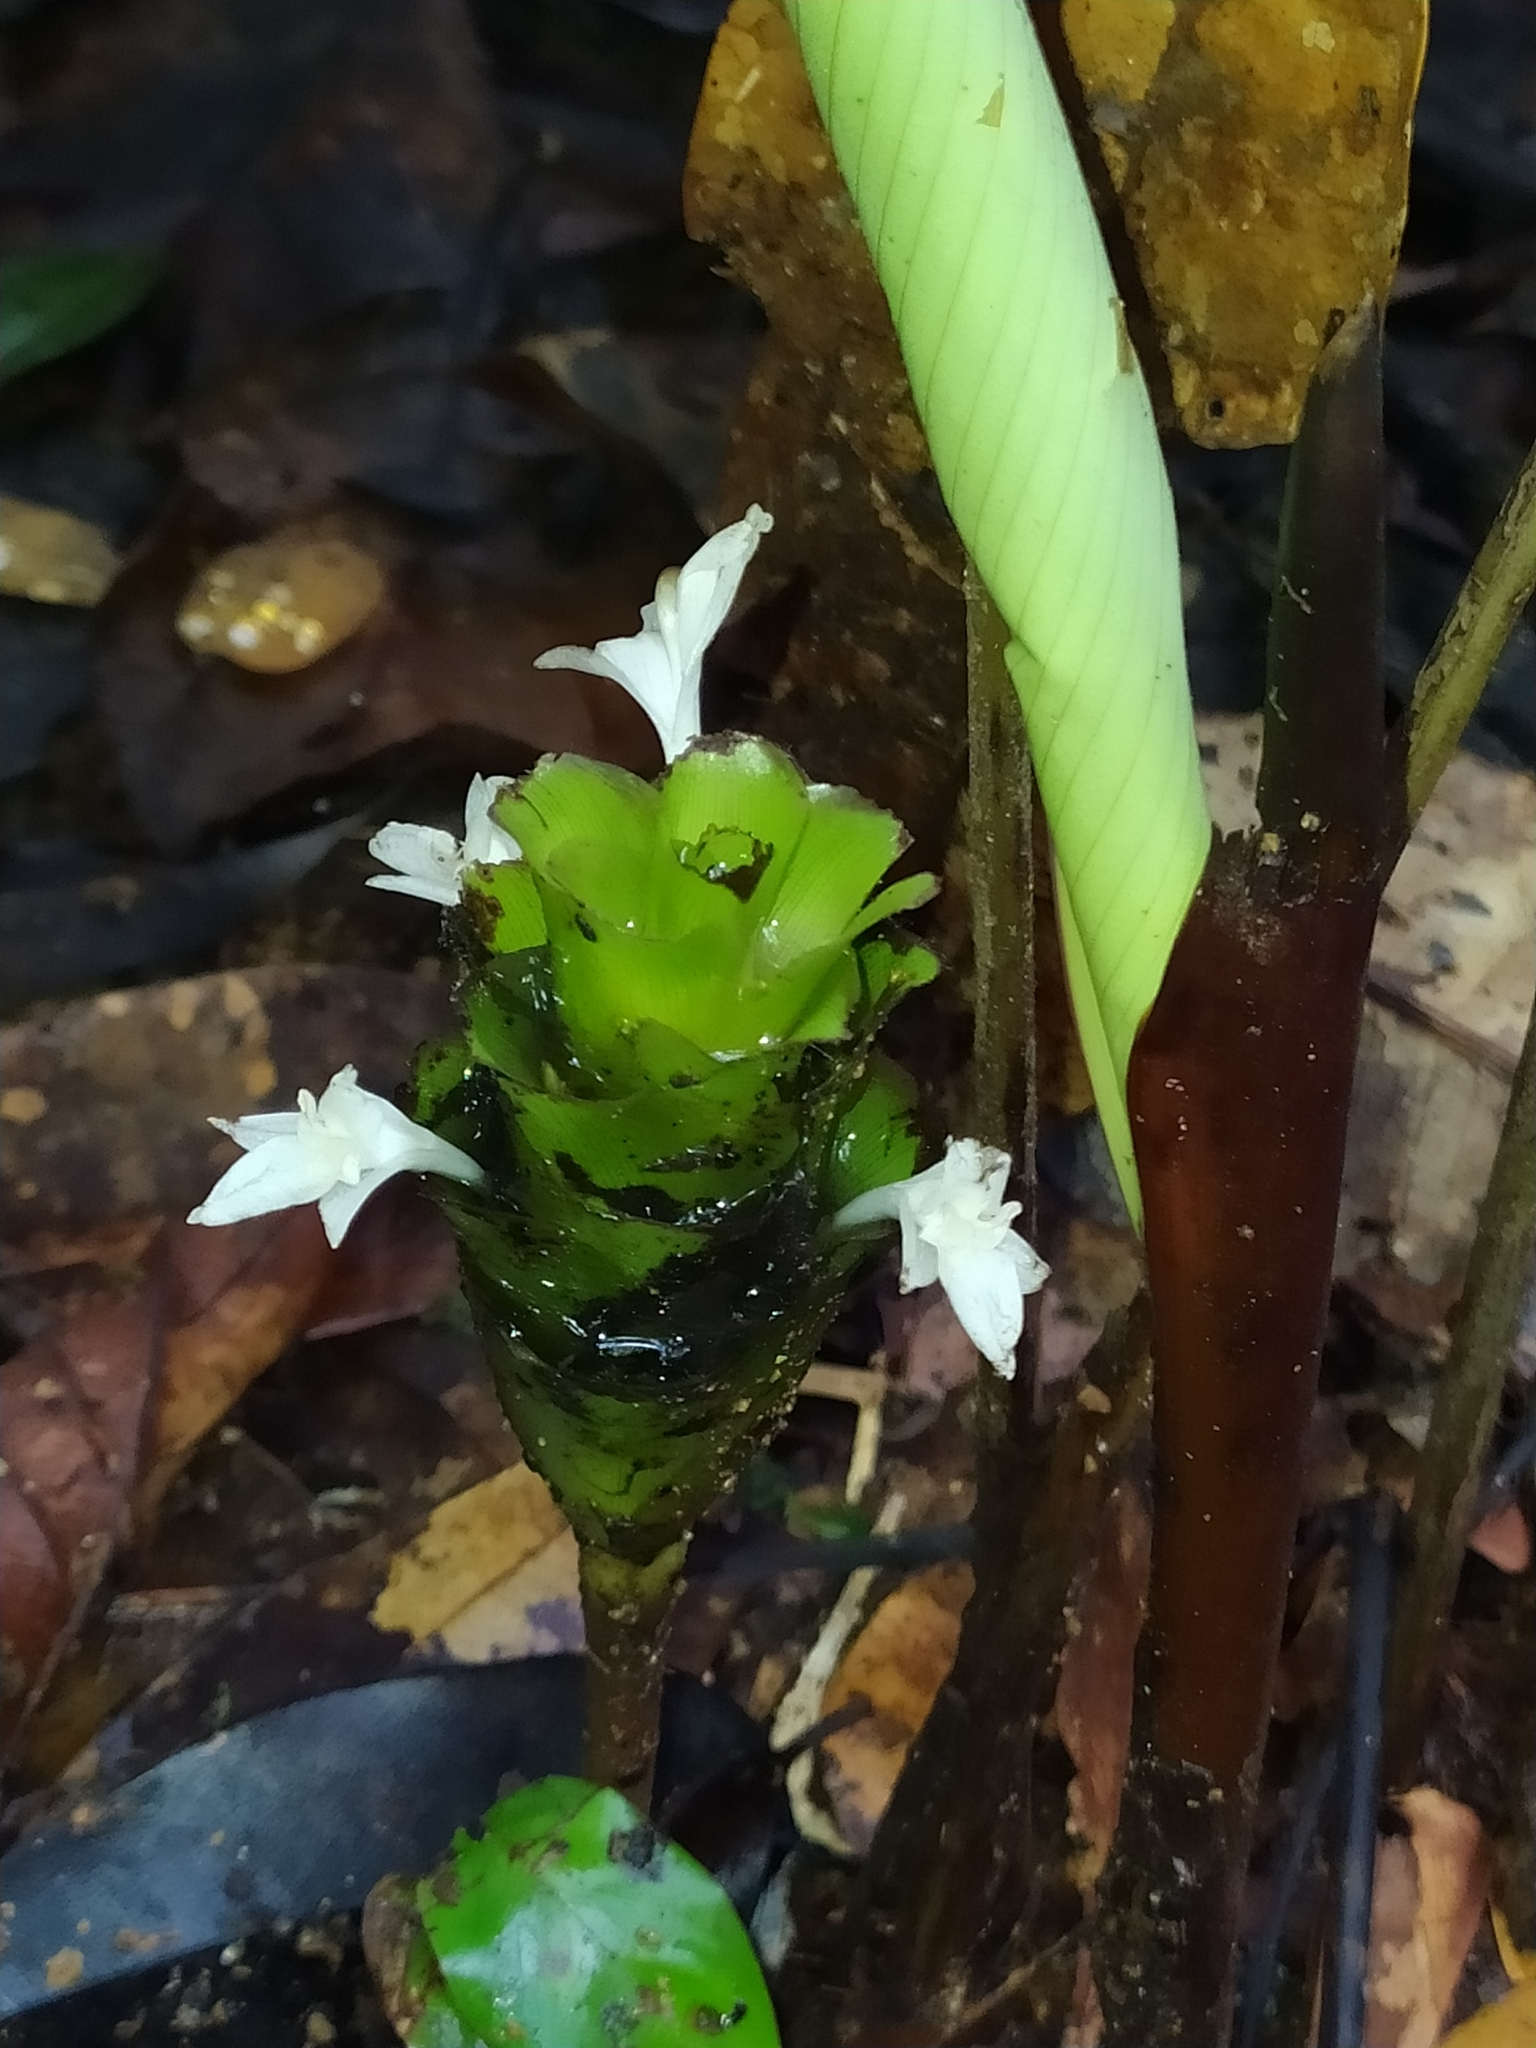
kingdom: Plantae
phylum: Tracheophyta
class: Liliopsida
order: Zingiberales
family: Marantaceae
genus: Goeppertia
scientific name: Goeppertia erecta
